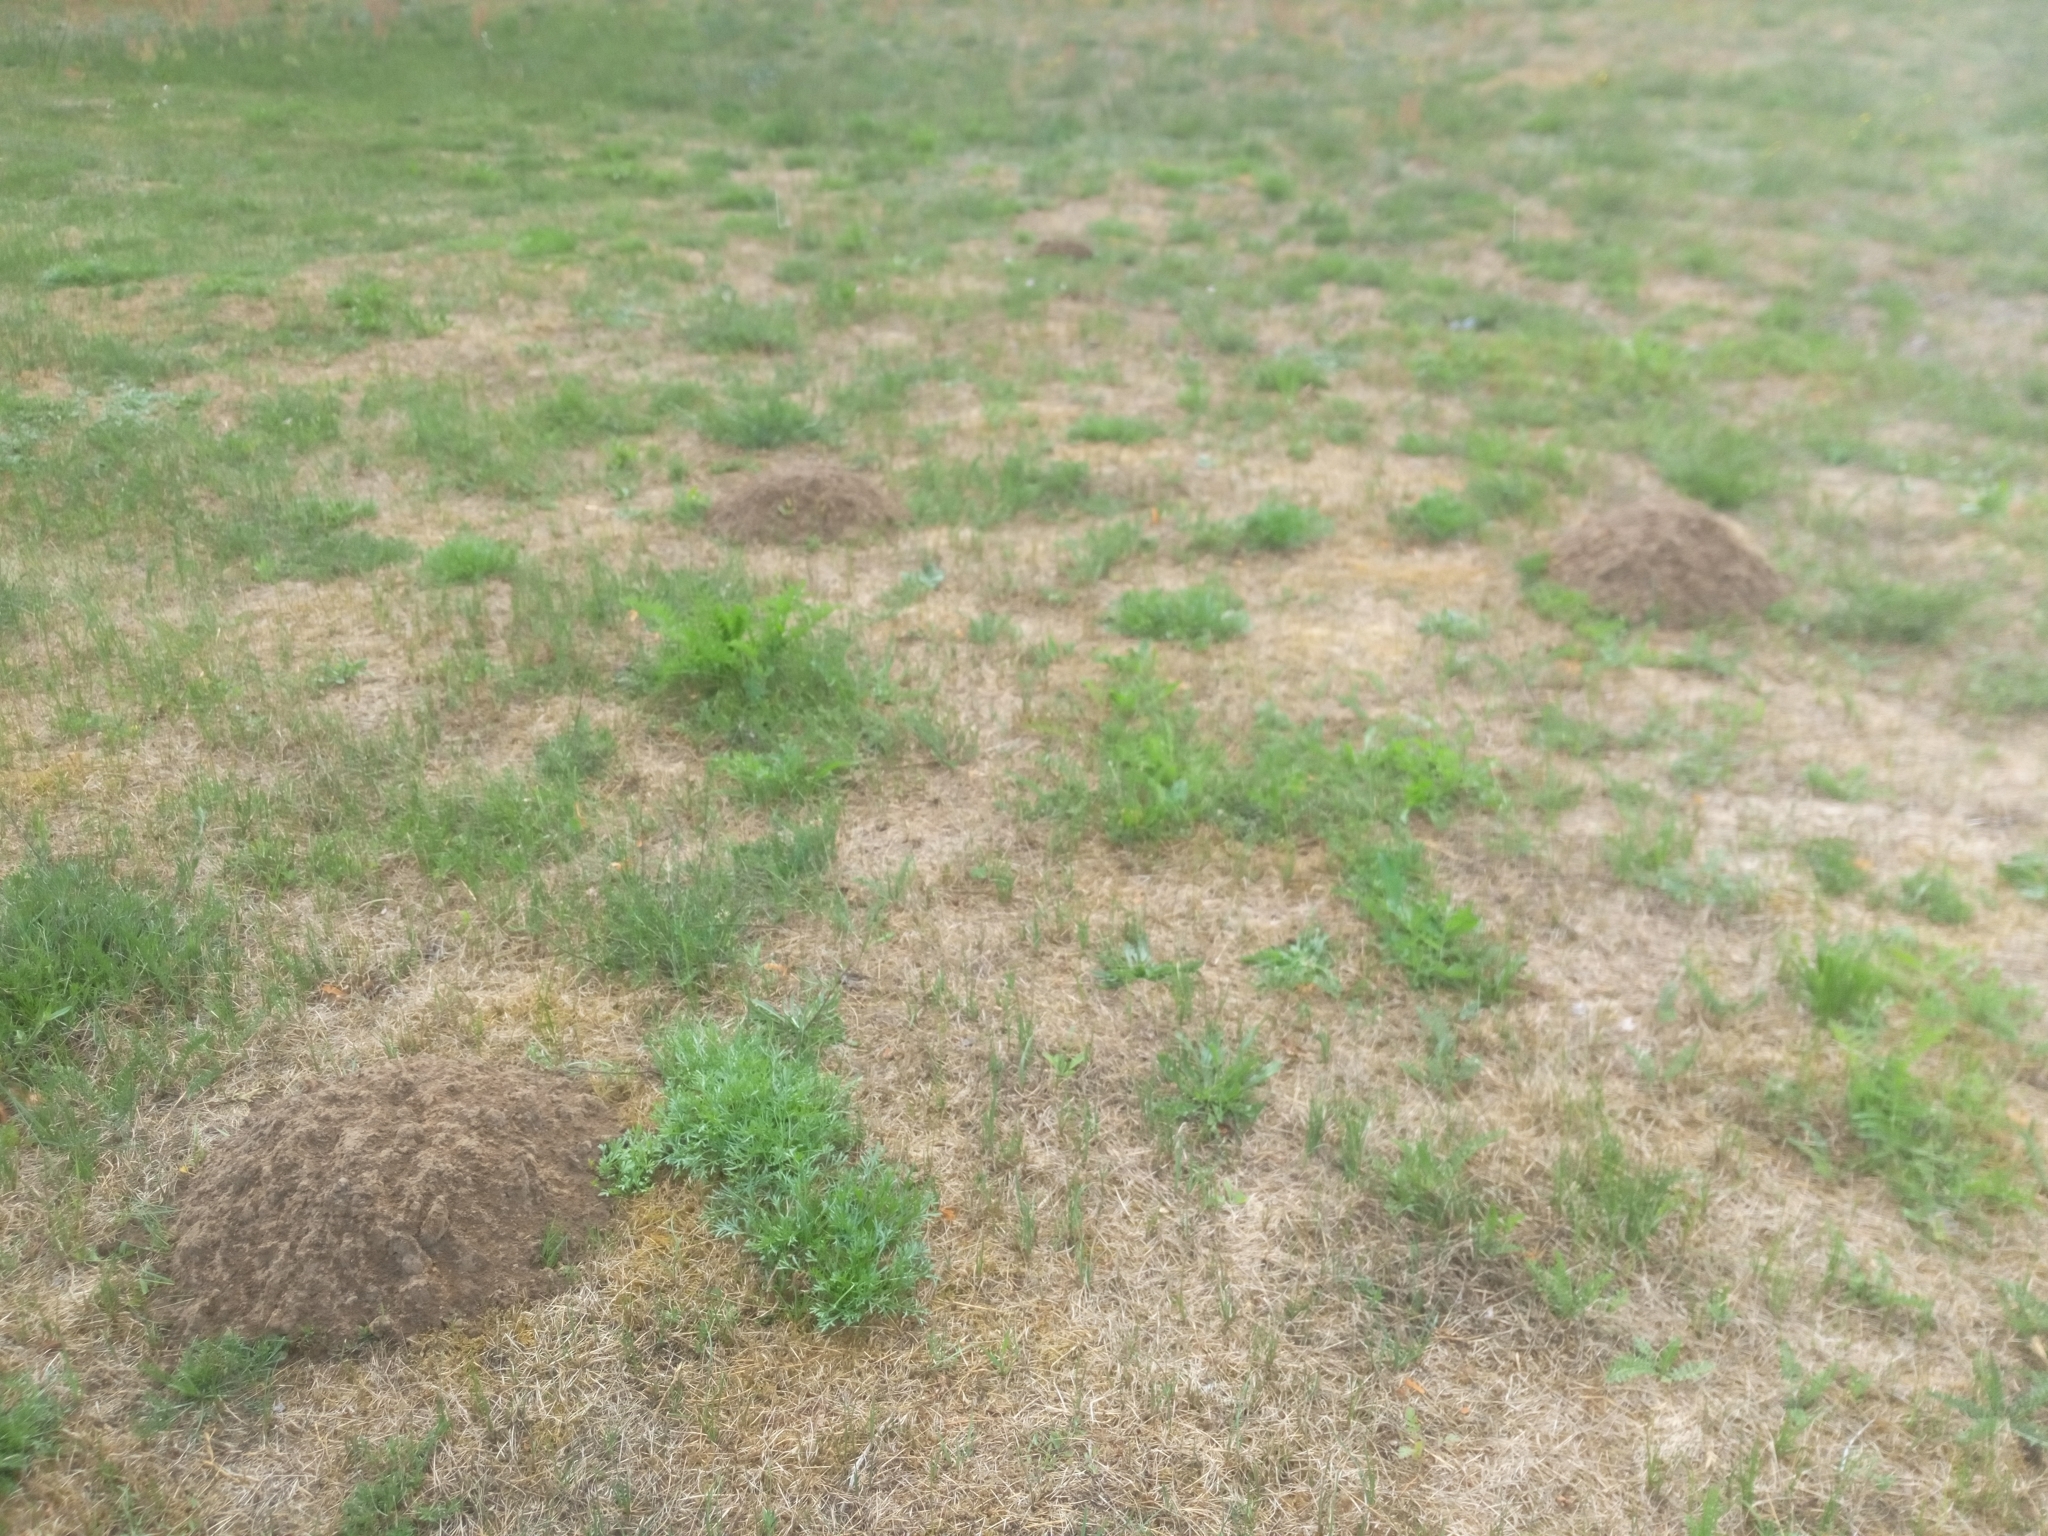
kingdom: Animalia
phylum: Chordata
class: Mammalia
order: Soricomorpha
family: Talpidae
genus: Talpa
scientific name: Talpa europaea
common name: European mole
